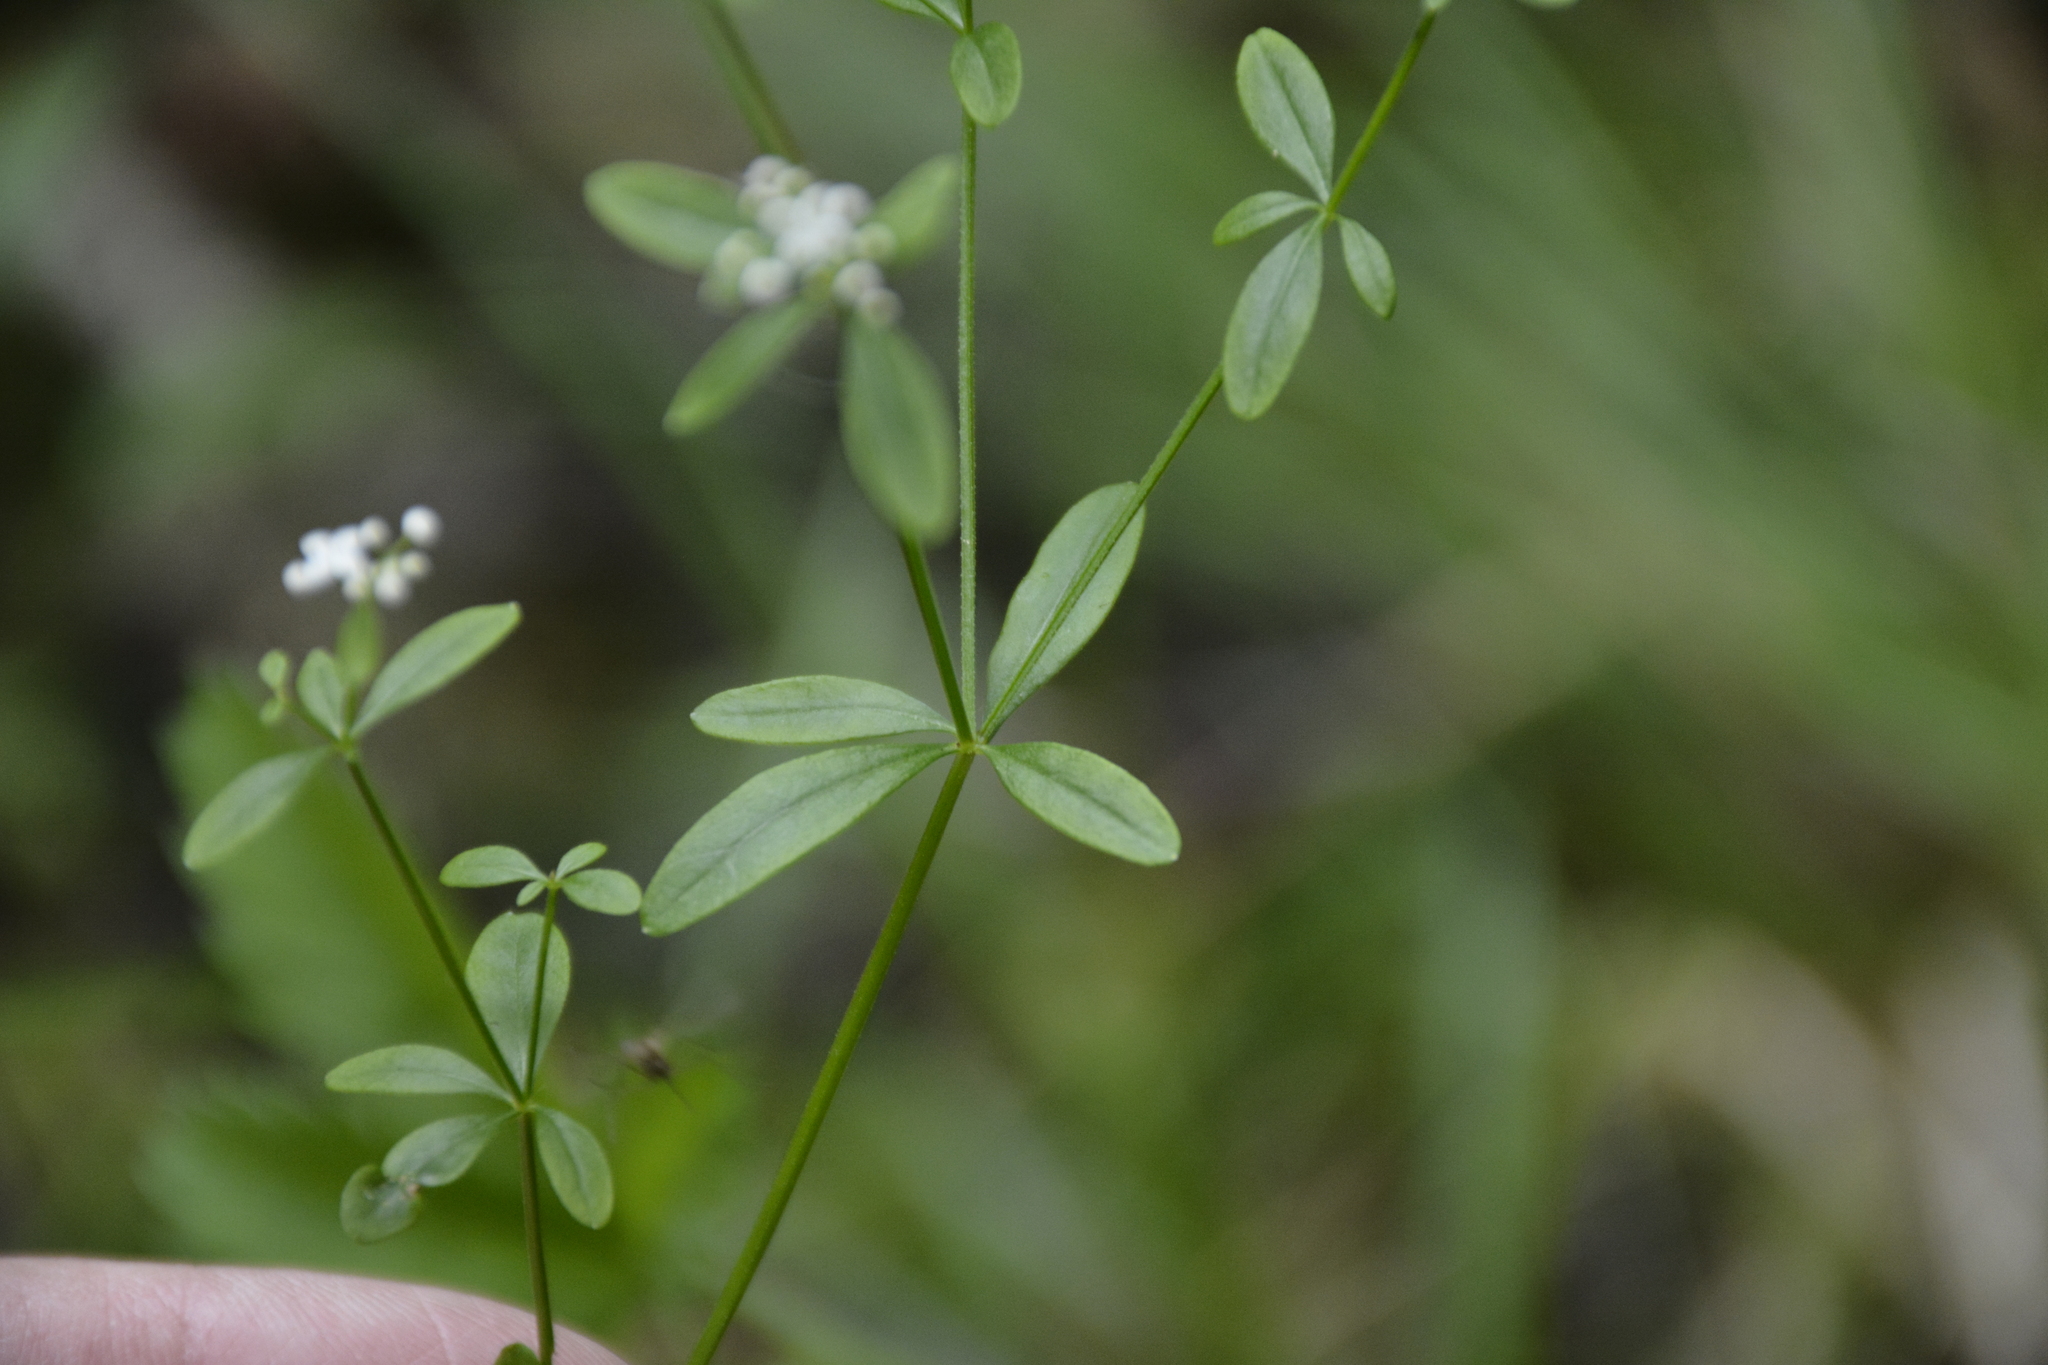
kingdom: Plantae
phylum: Tracheophyta
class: Magnoliopsida
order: Gentianales
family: Rubiaceae
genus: Galium
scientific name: Galium palustre
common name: Common marsh-bedstraw
